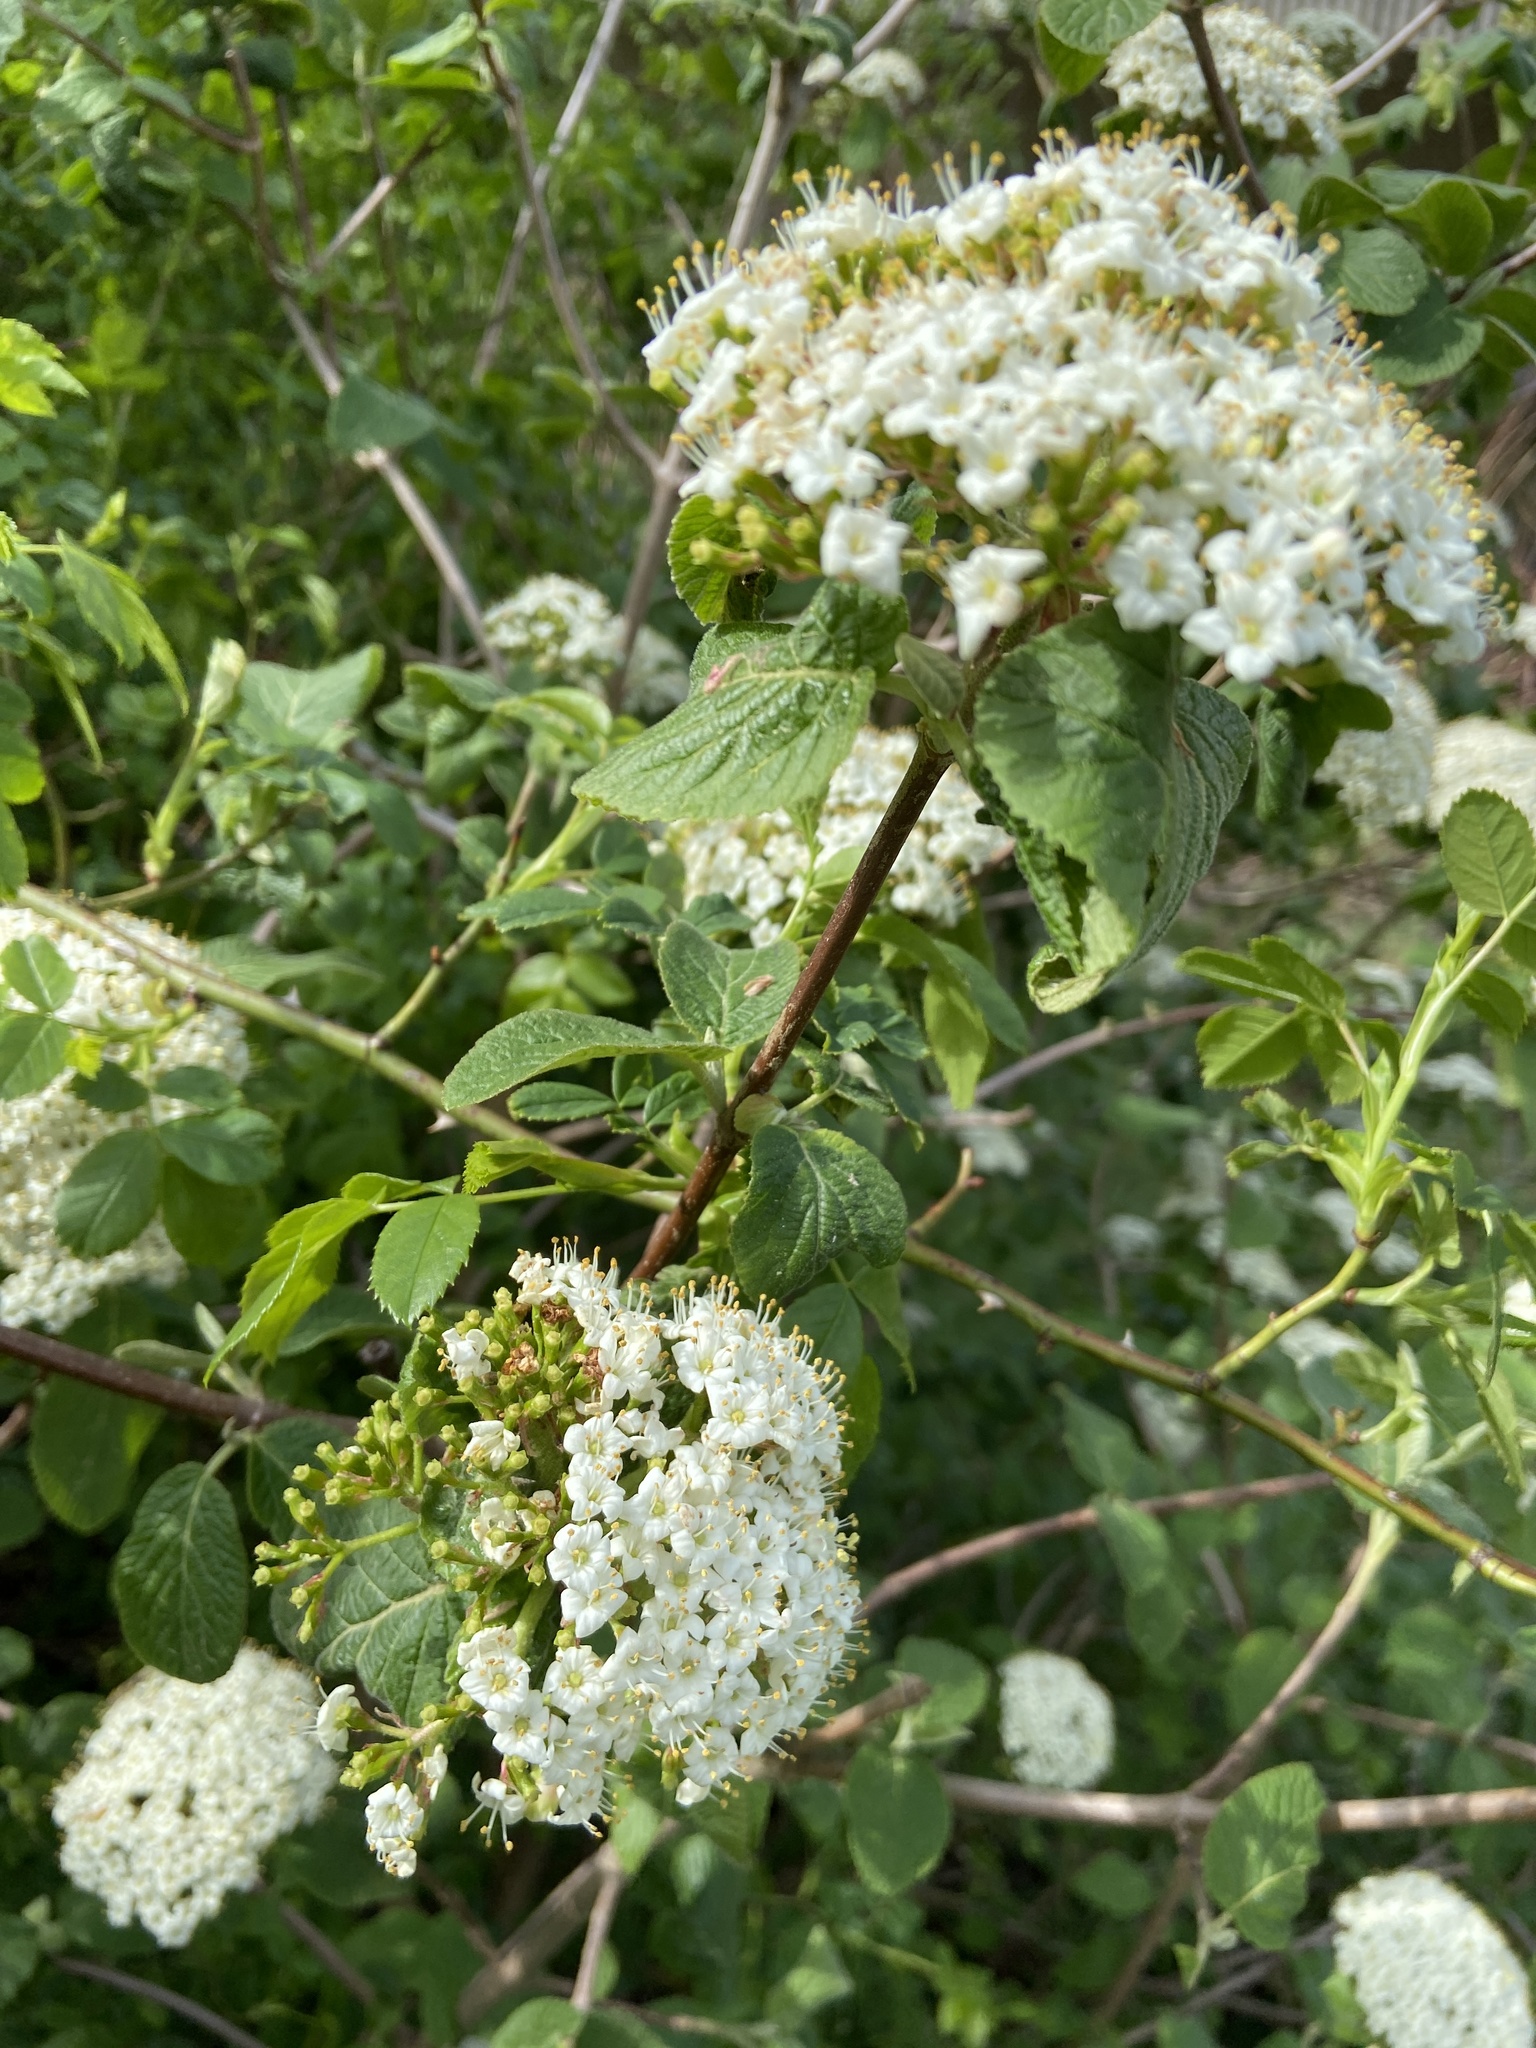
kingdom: Plantae
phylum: Tracheophyta
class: Magnoliopsida
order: Dipsacales
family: Viburnaceae
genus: Viburnum
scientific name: Viburnum lantana
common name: Wayfaring tree
